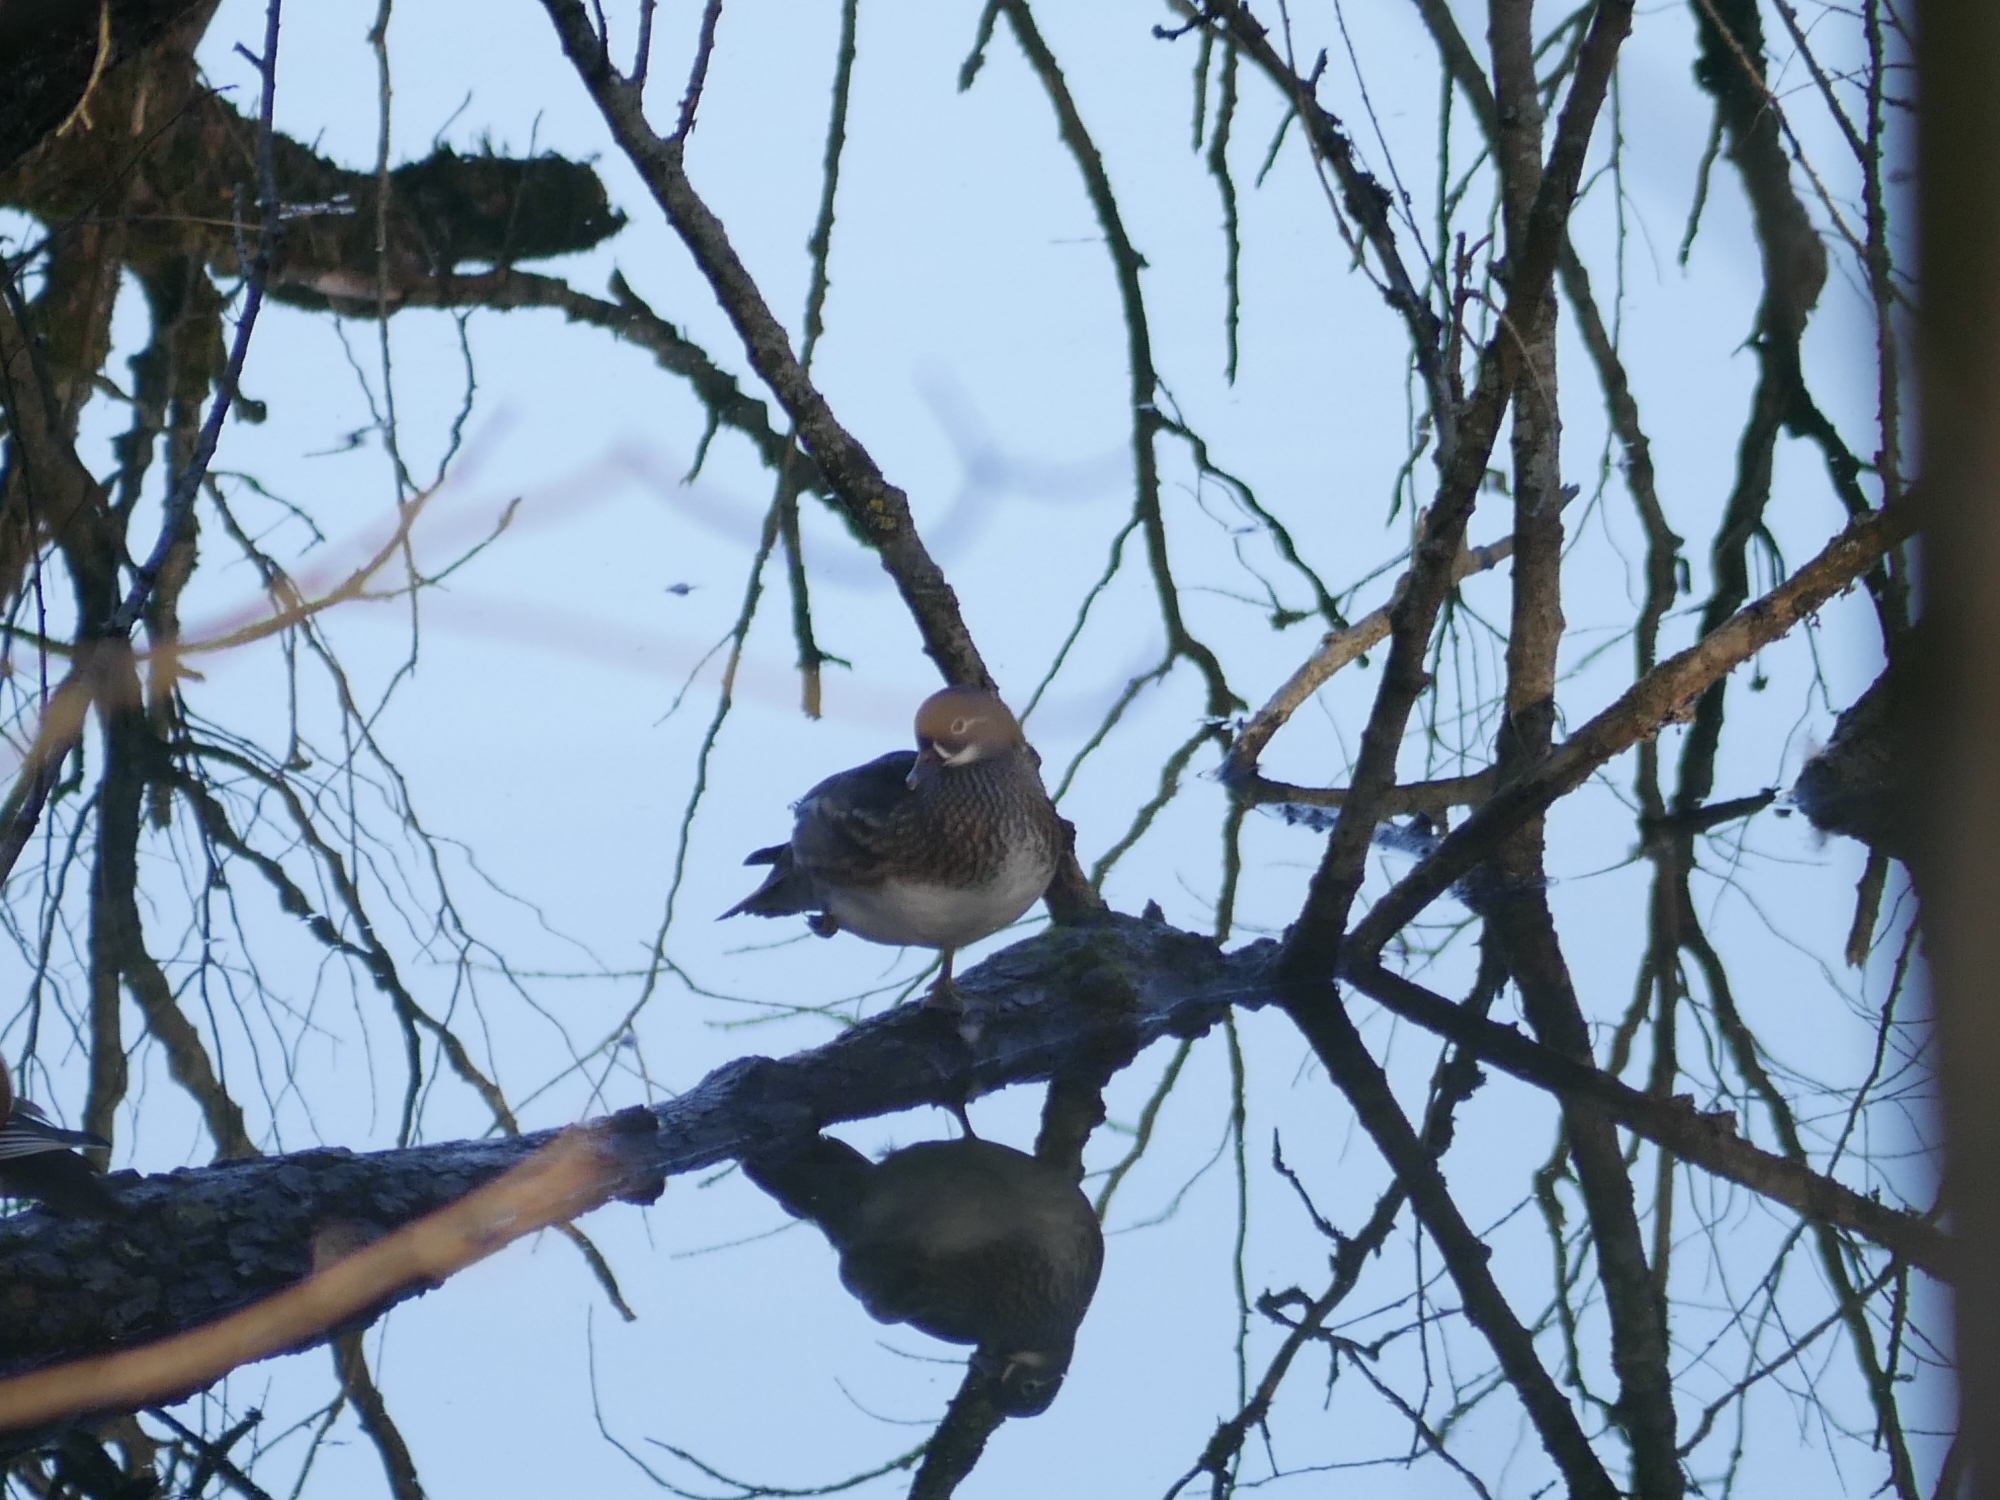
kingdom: Animalia
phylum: Chordata
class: Aves
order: Anseriformes
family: Anatidae
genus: Aix
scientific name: Aix galericulata
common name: Mandarin duck
